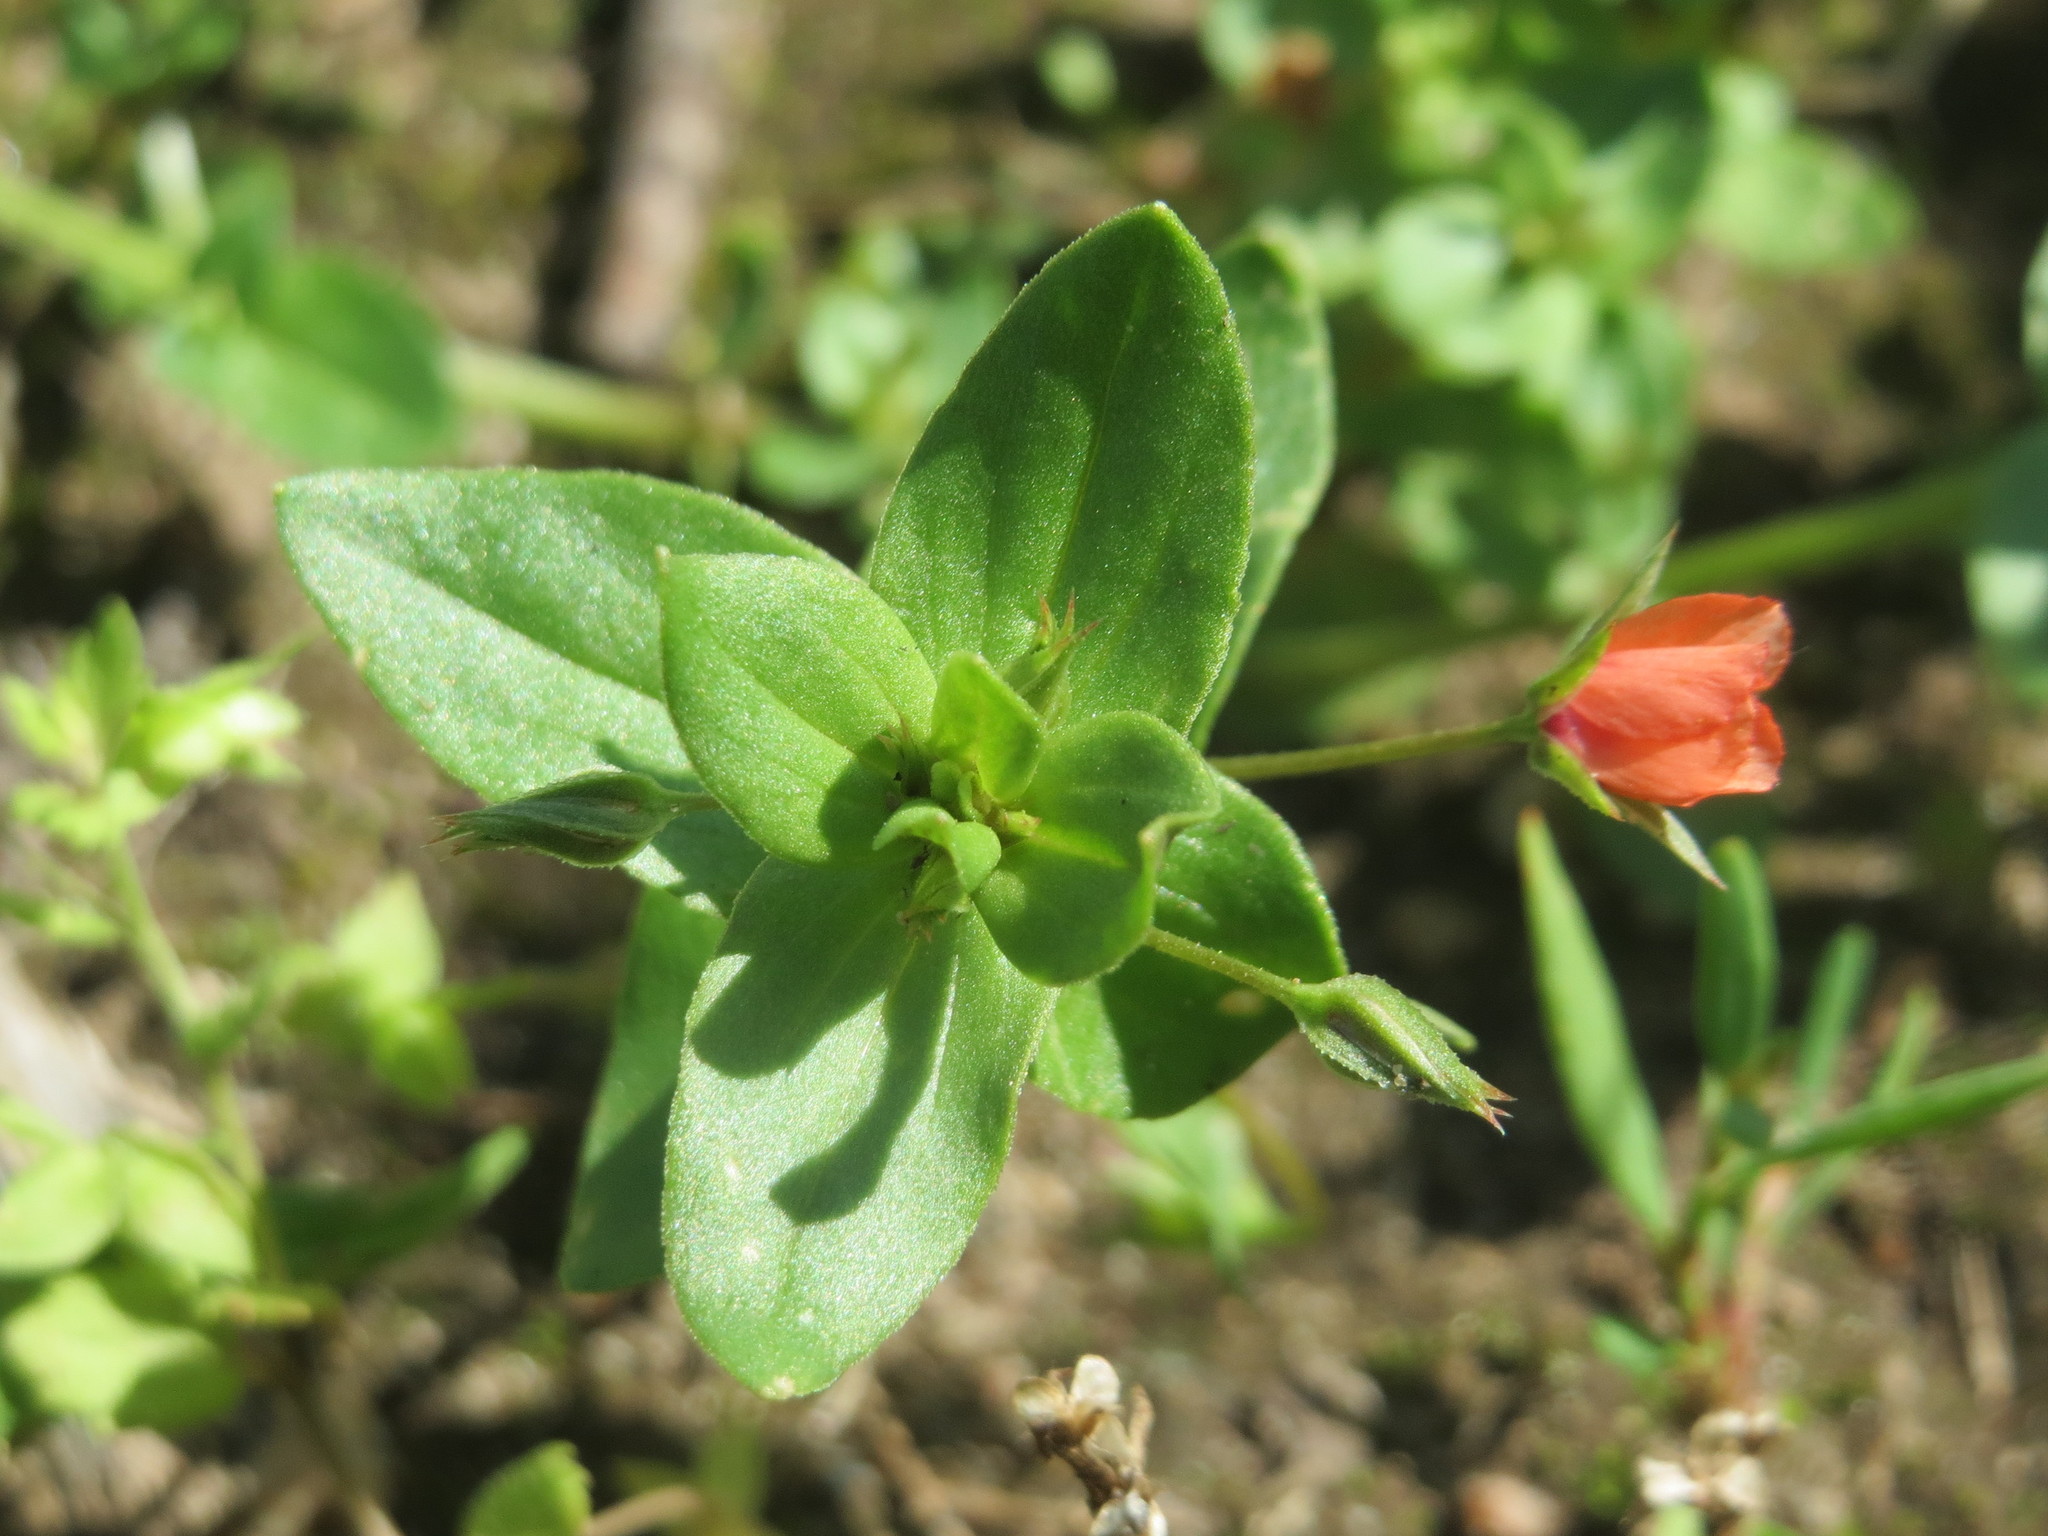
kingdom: Plantae
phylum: Tracheophyta
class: Magnoliopsida
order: Ericales
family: Primulaceae
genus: Lysimachia
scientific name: Lysimachia arvensis
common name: Scarlet pimpernel
